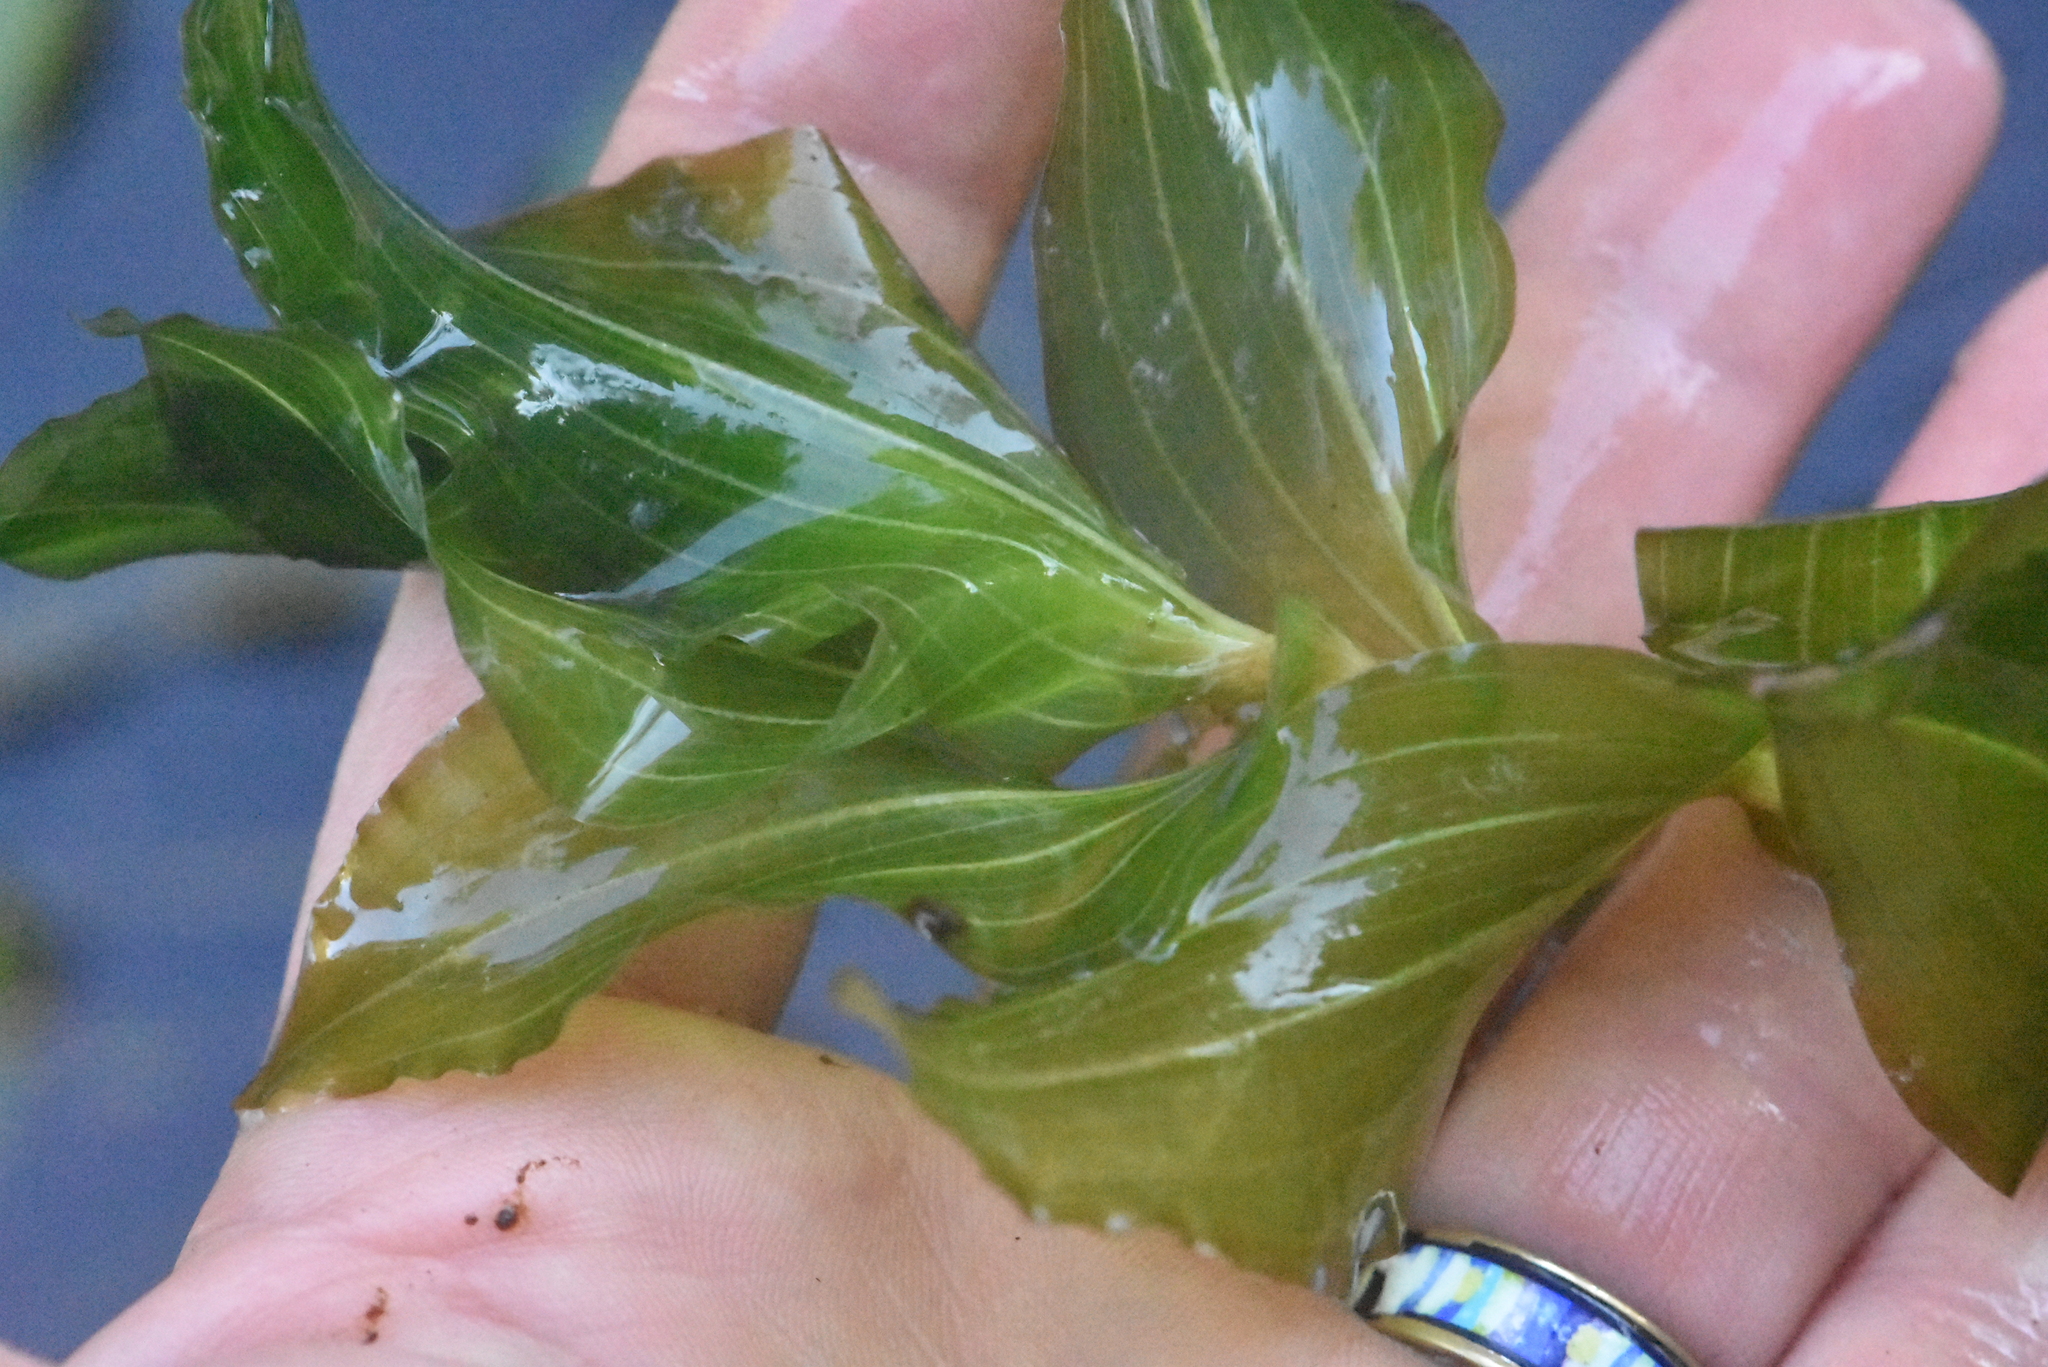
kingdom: Plantae
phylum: Tracheophyta
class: Liliopsida
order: Alismatales
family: Potamogetonaceae
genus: Potamogeton
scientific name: Potamogeton perfoliatus
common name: Perfoliate pondweed
